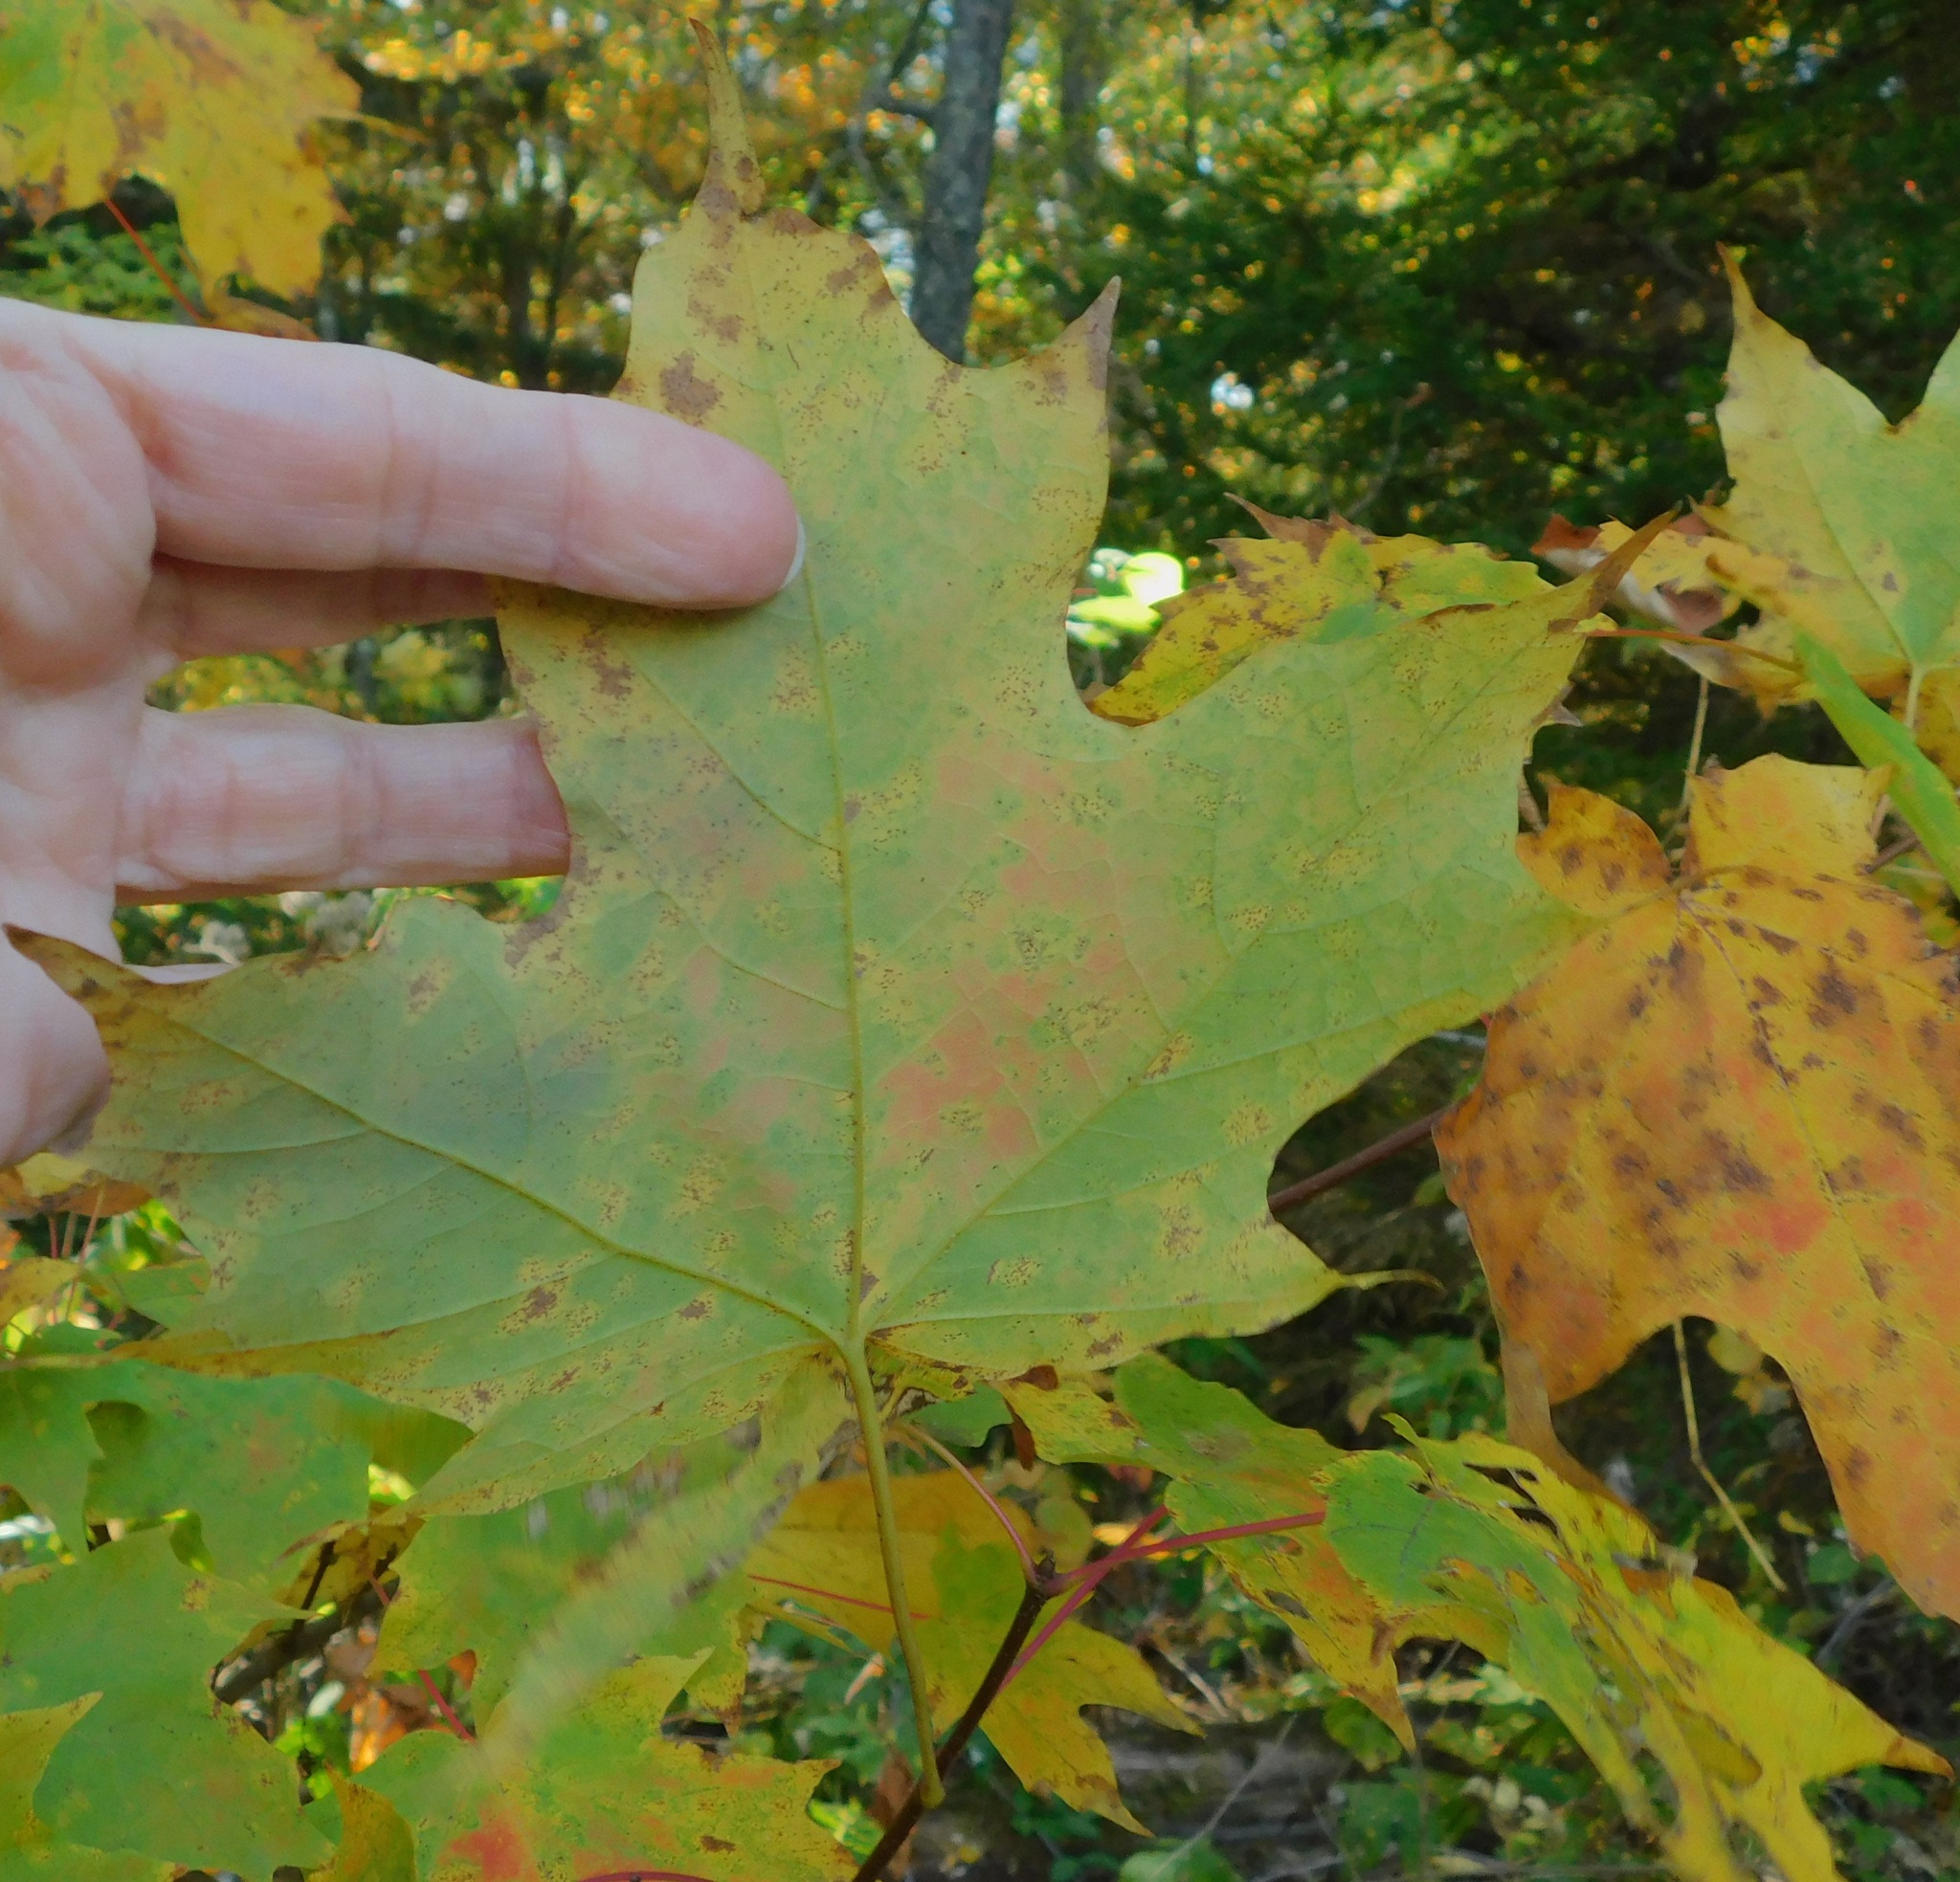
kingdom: Plantae
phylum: Tracheophyta
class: Magnoliopsida
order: Sapindales
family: Sapindaceae
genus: Acer
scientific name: Acer saccharum
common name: Sugar maple
